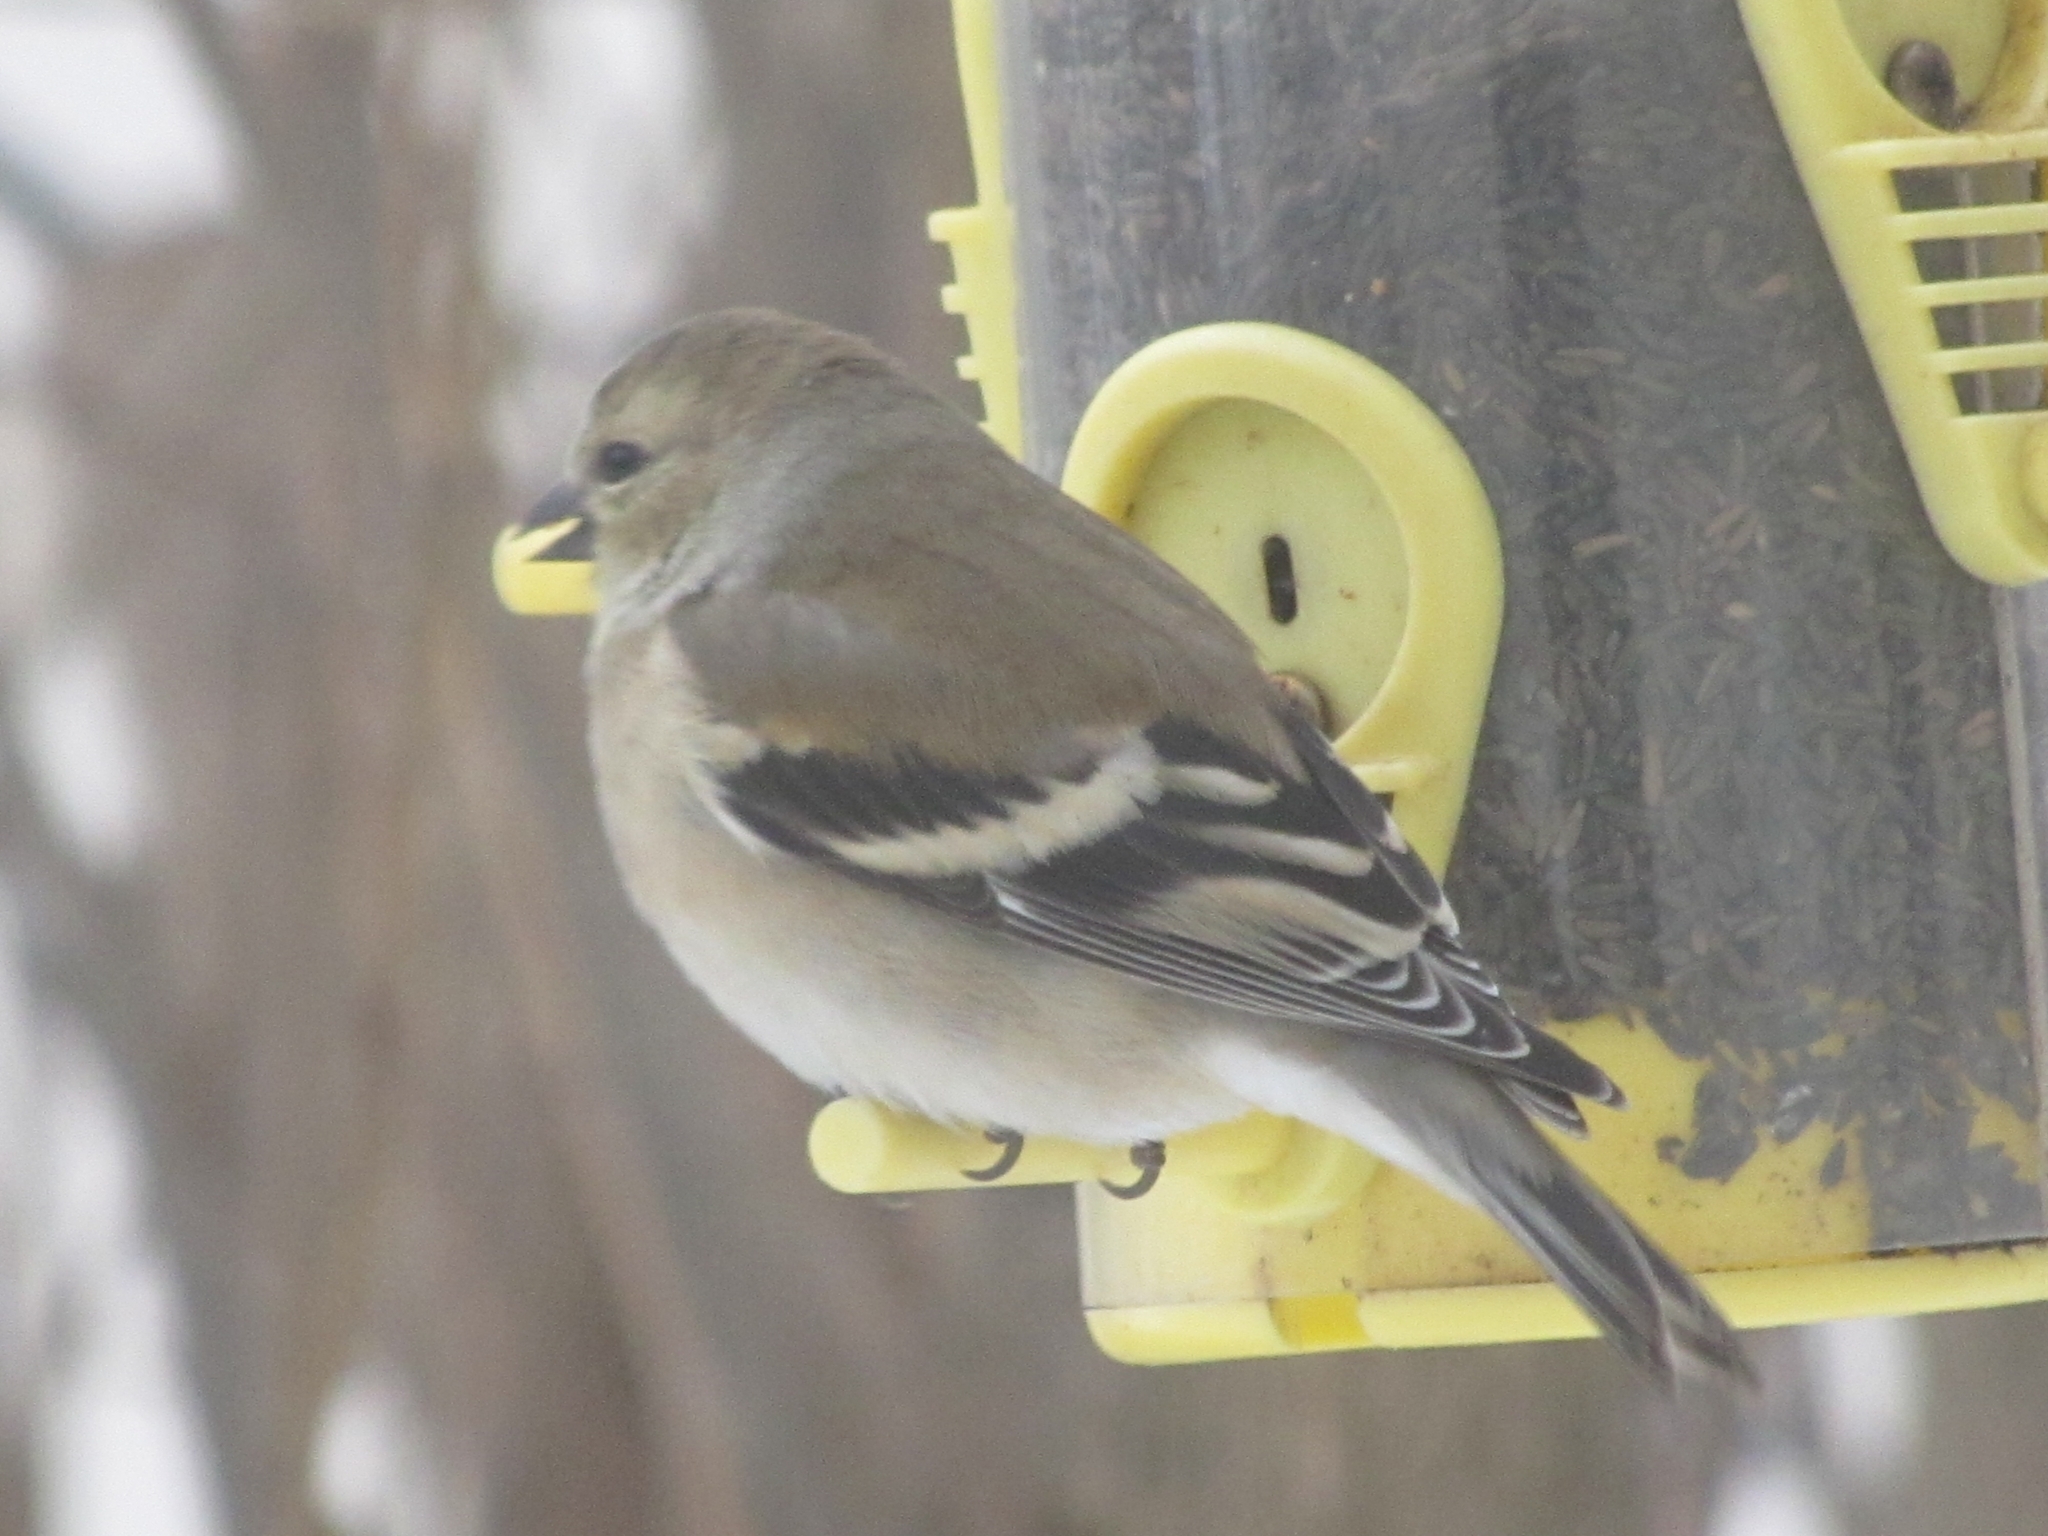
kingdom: Animalia
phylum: Chordata
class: Aves
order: Passeriformes
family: Fringillidae
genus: Spinus
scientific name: Spinus tristis
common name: American goldfinch
